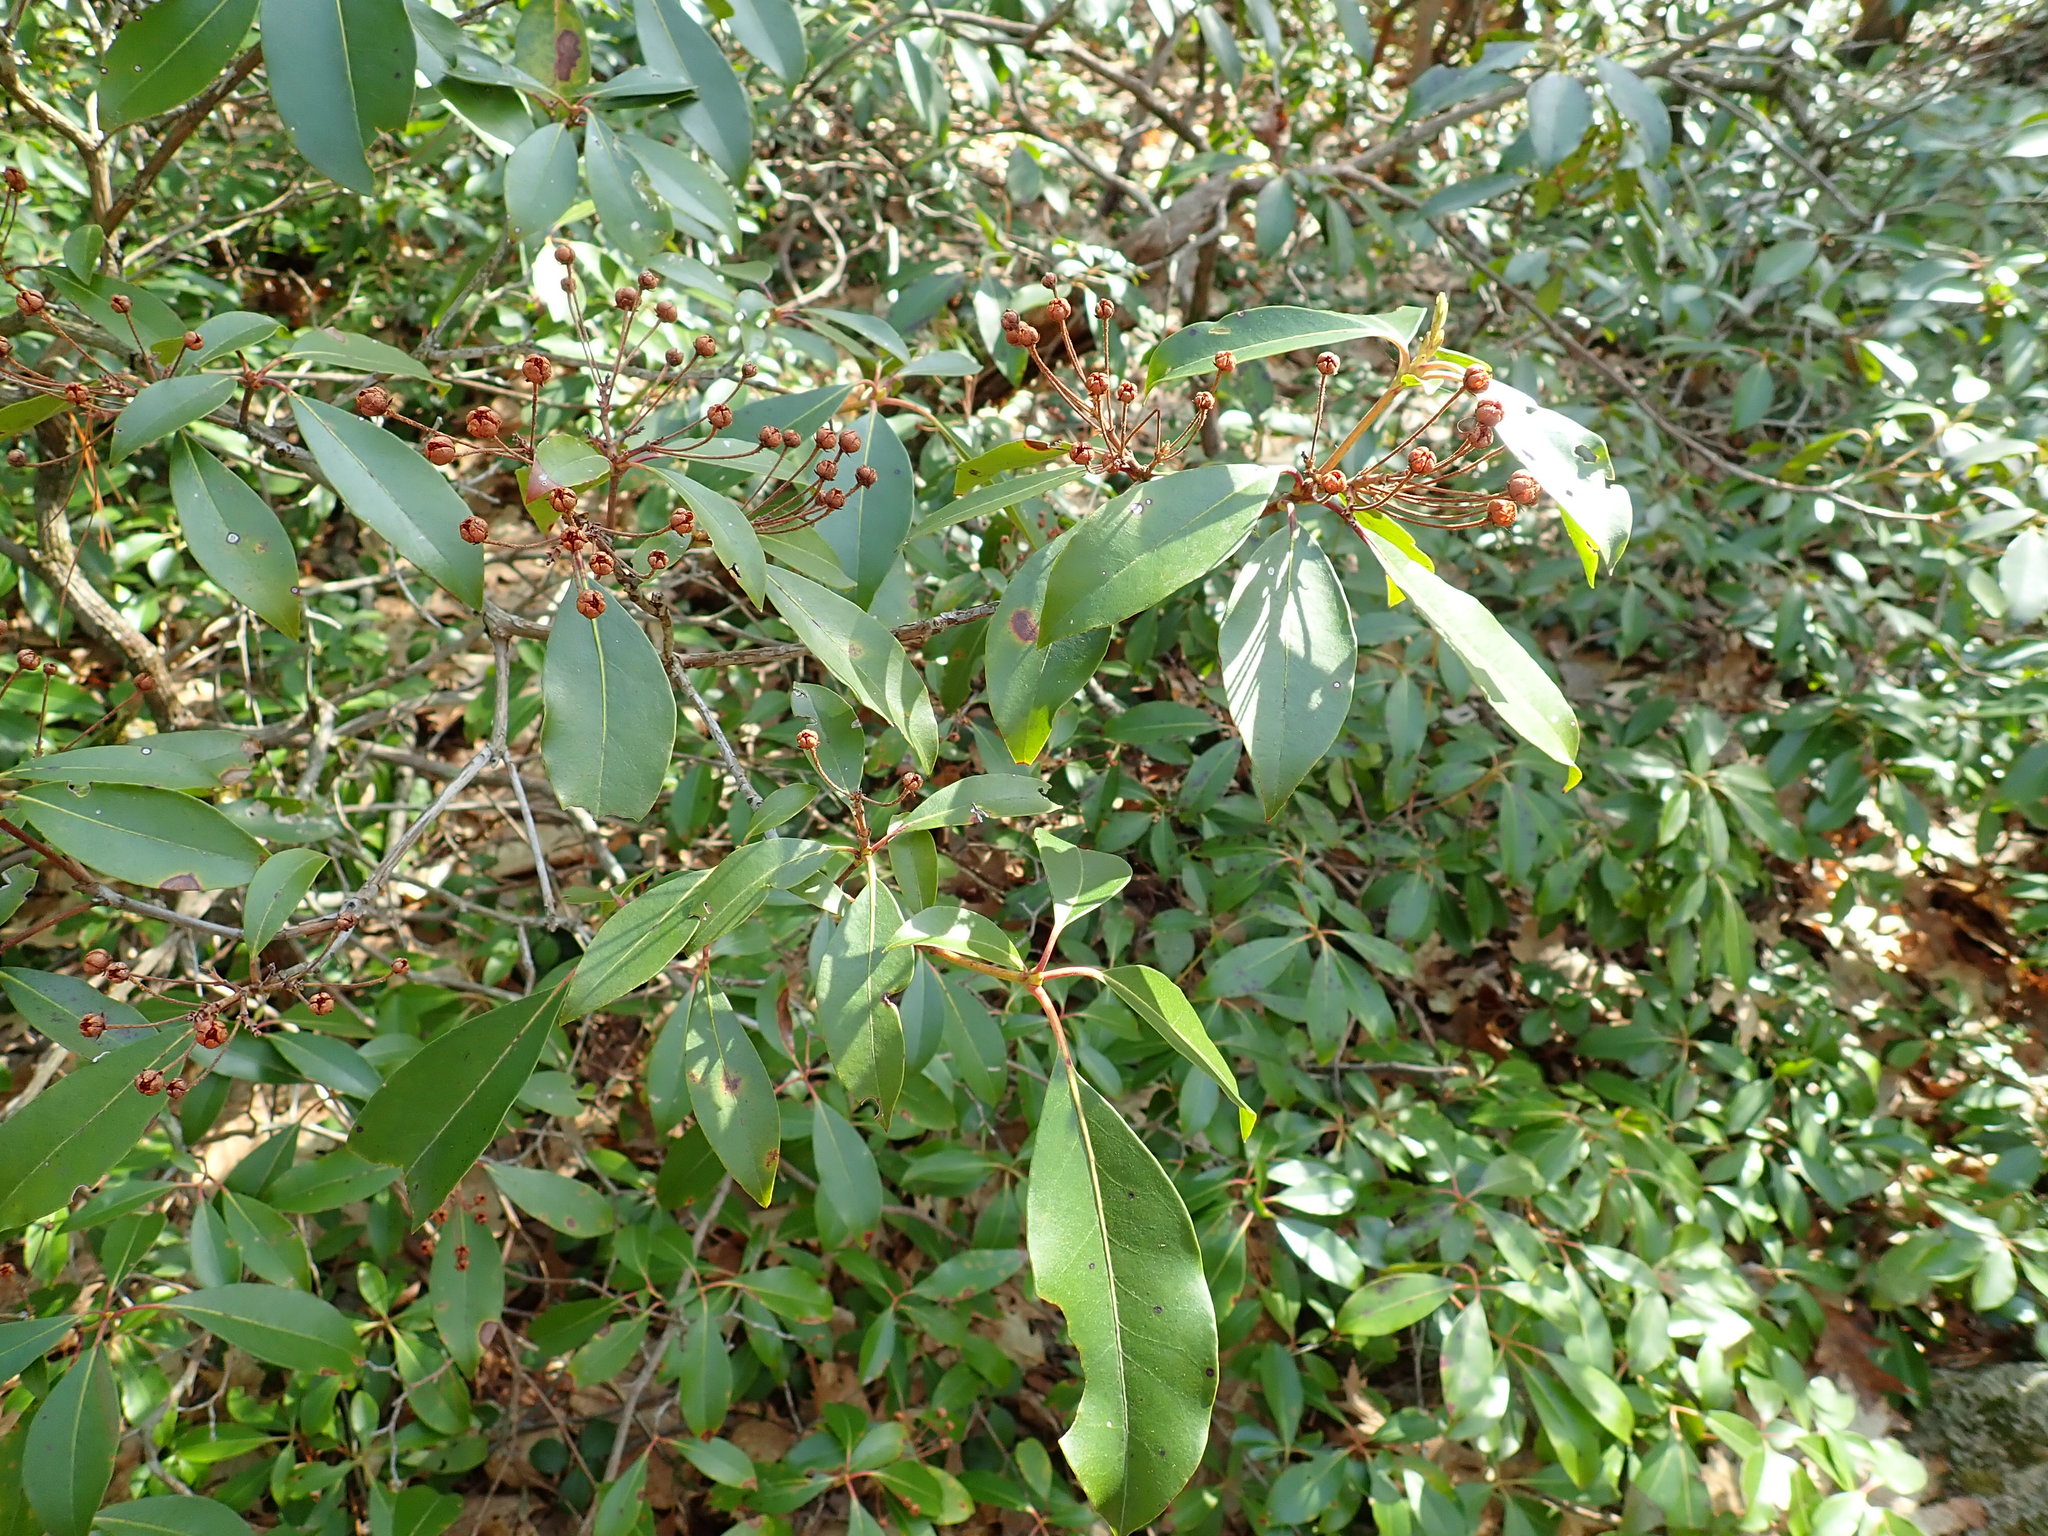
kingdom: Plantae
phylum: Tracheophyta
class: Magnoliopsida
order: Ericales
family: Ericaceae
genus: Kalmia
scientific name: Kalmia latifolia
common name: Mountain-laurel
